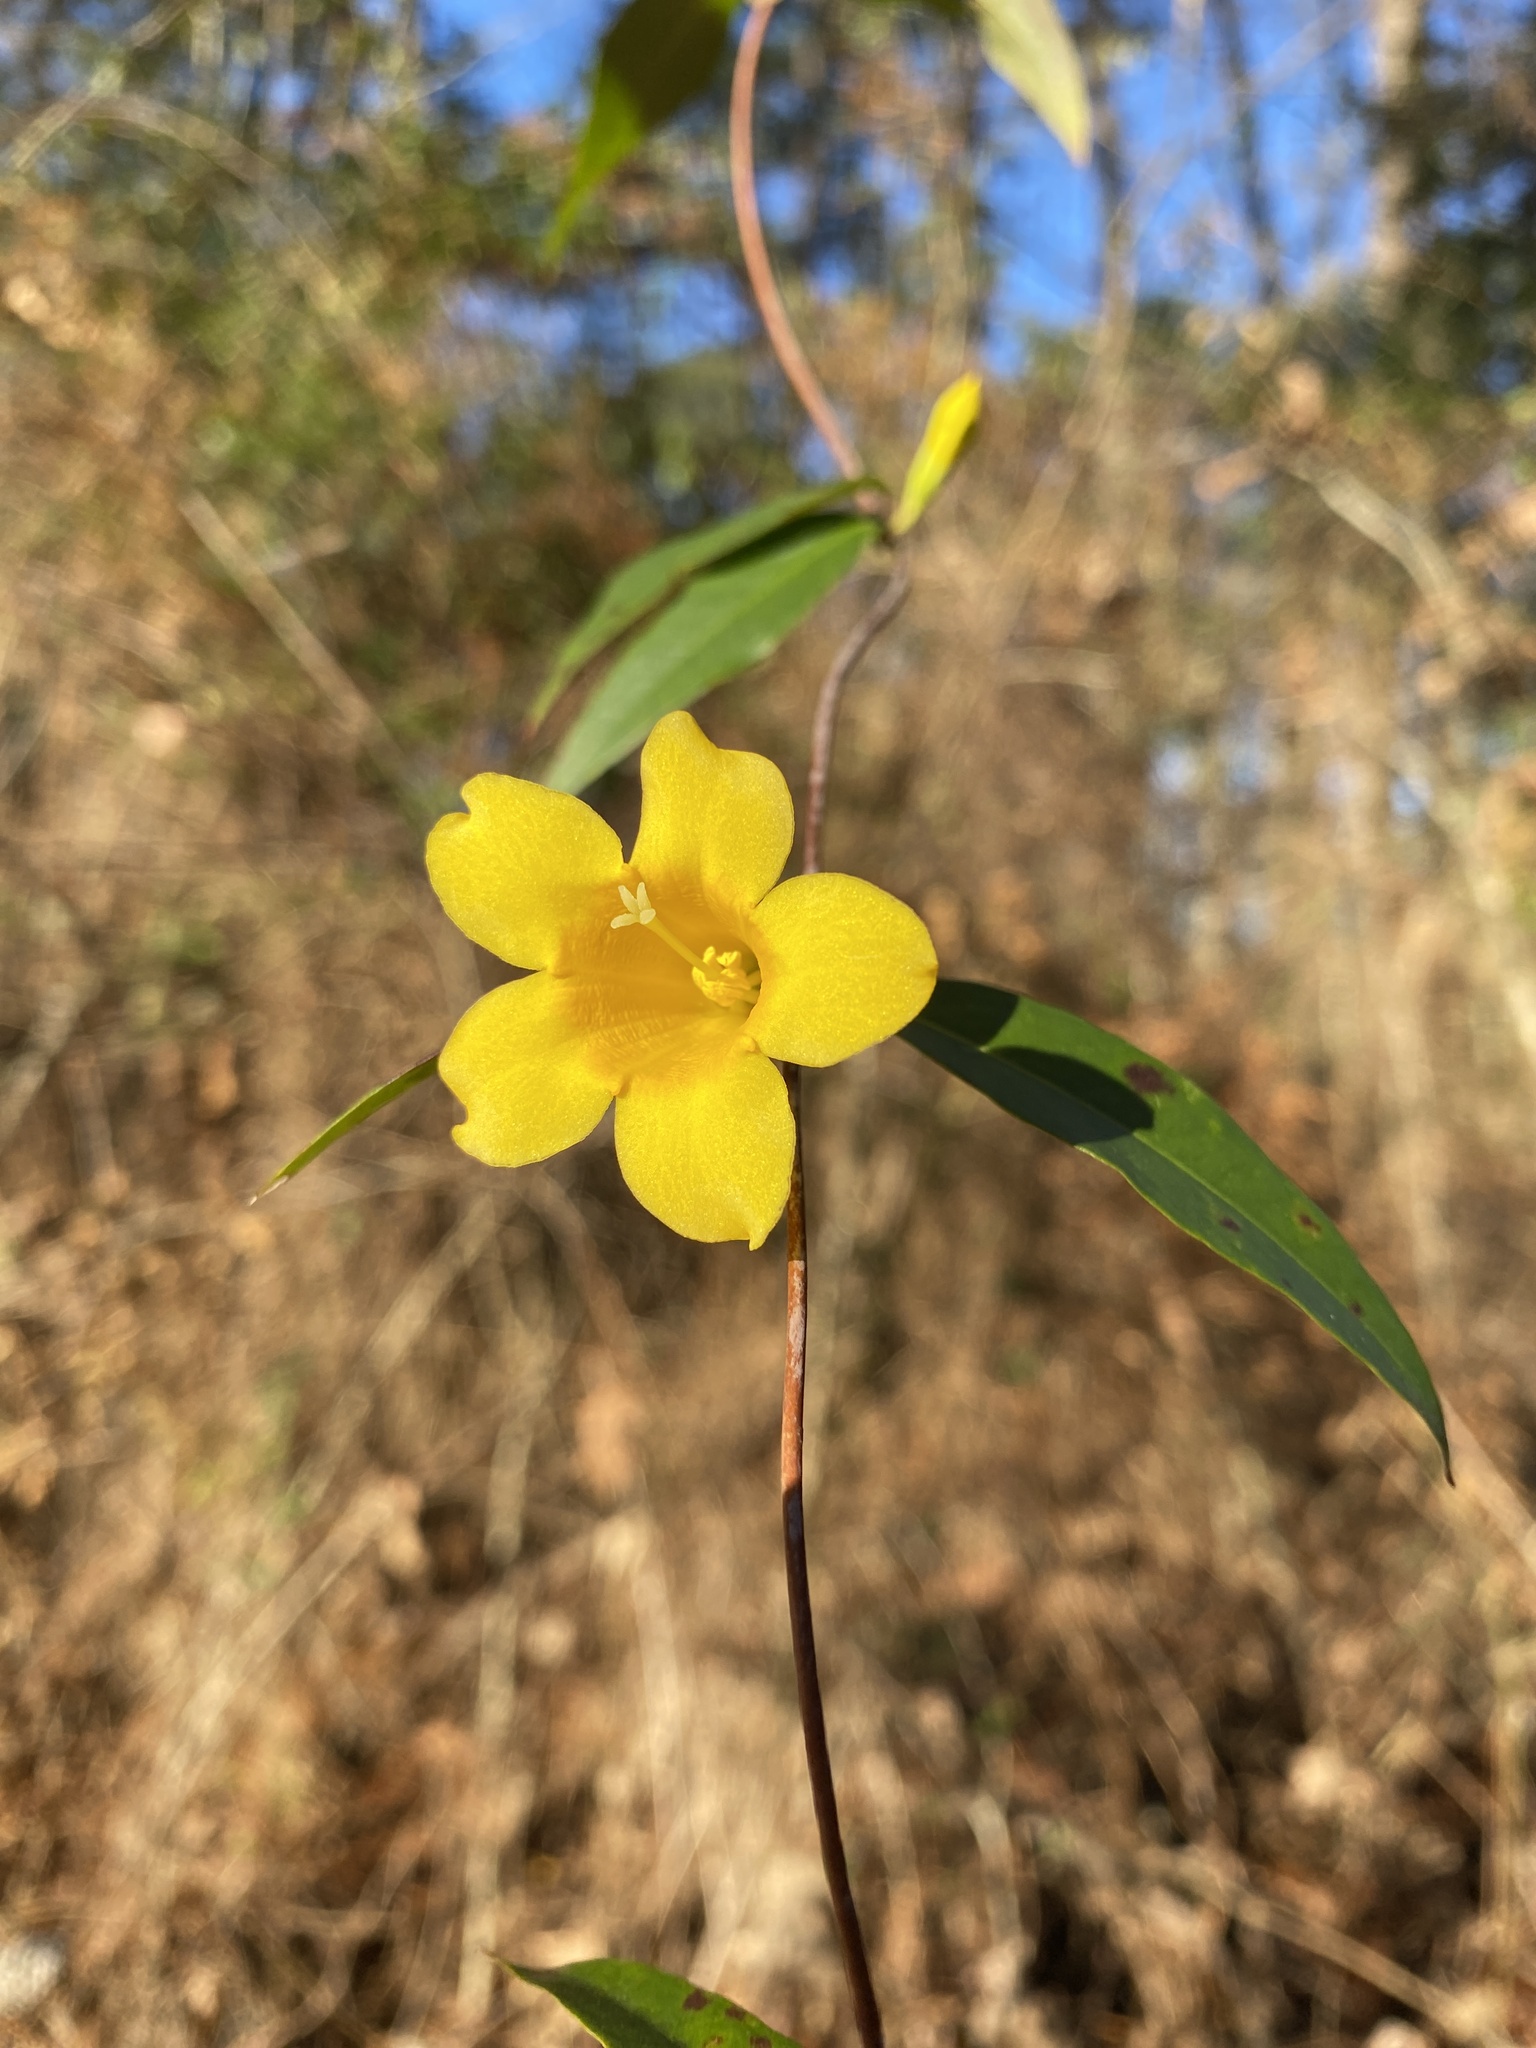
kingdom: Plantae
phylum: Tracheophyta
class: Magnoliopsida
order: Gentianales
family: Gelsemiaceae
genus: Gelsemium
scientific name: Gelsemium sempervirens
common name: Carolina-jasmine
